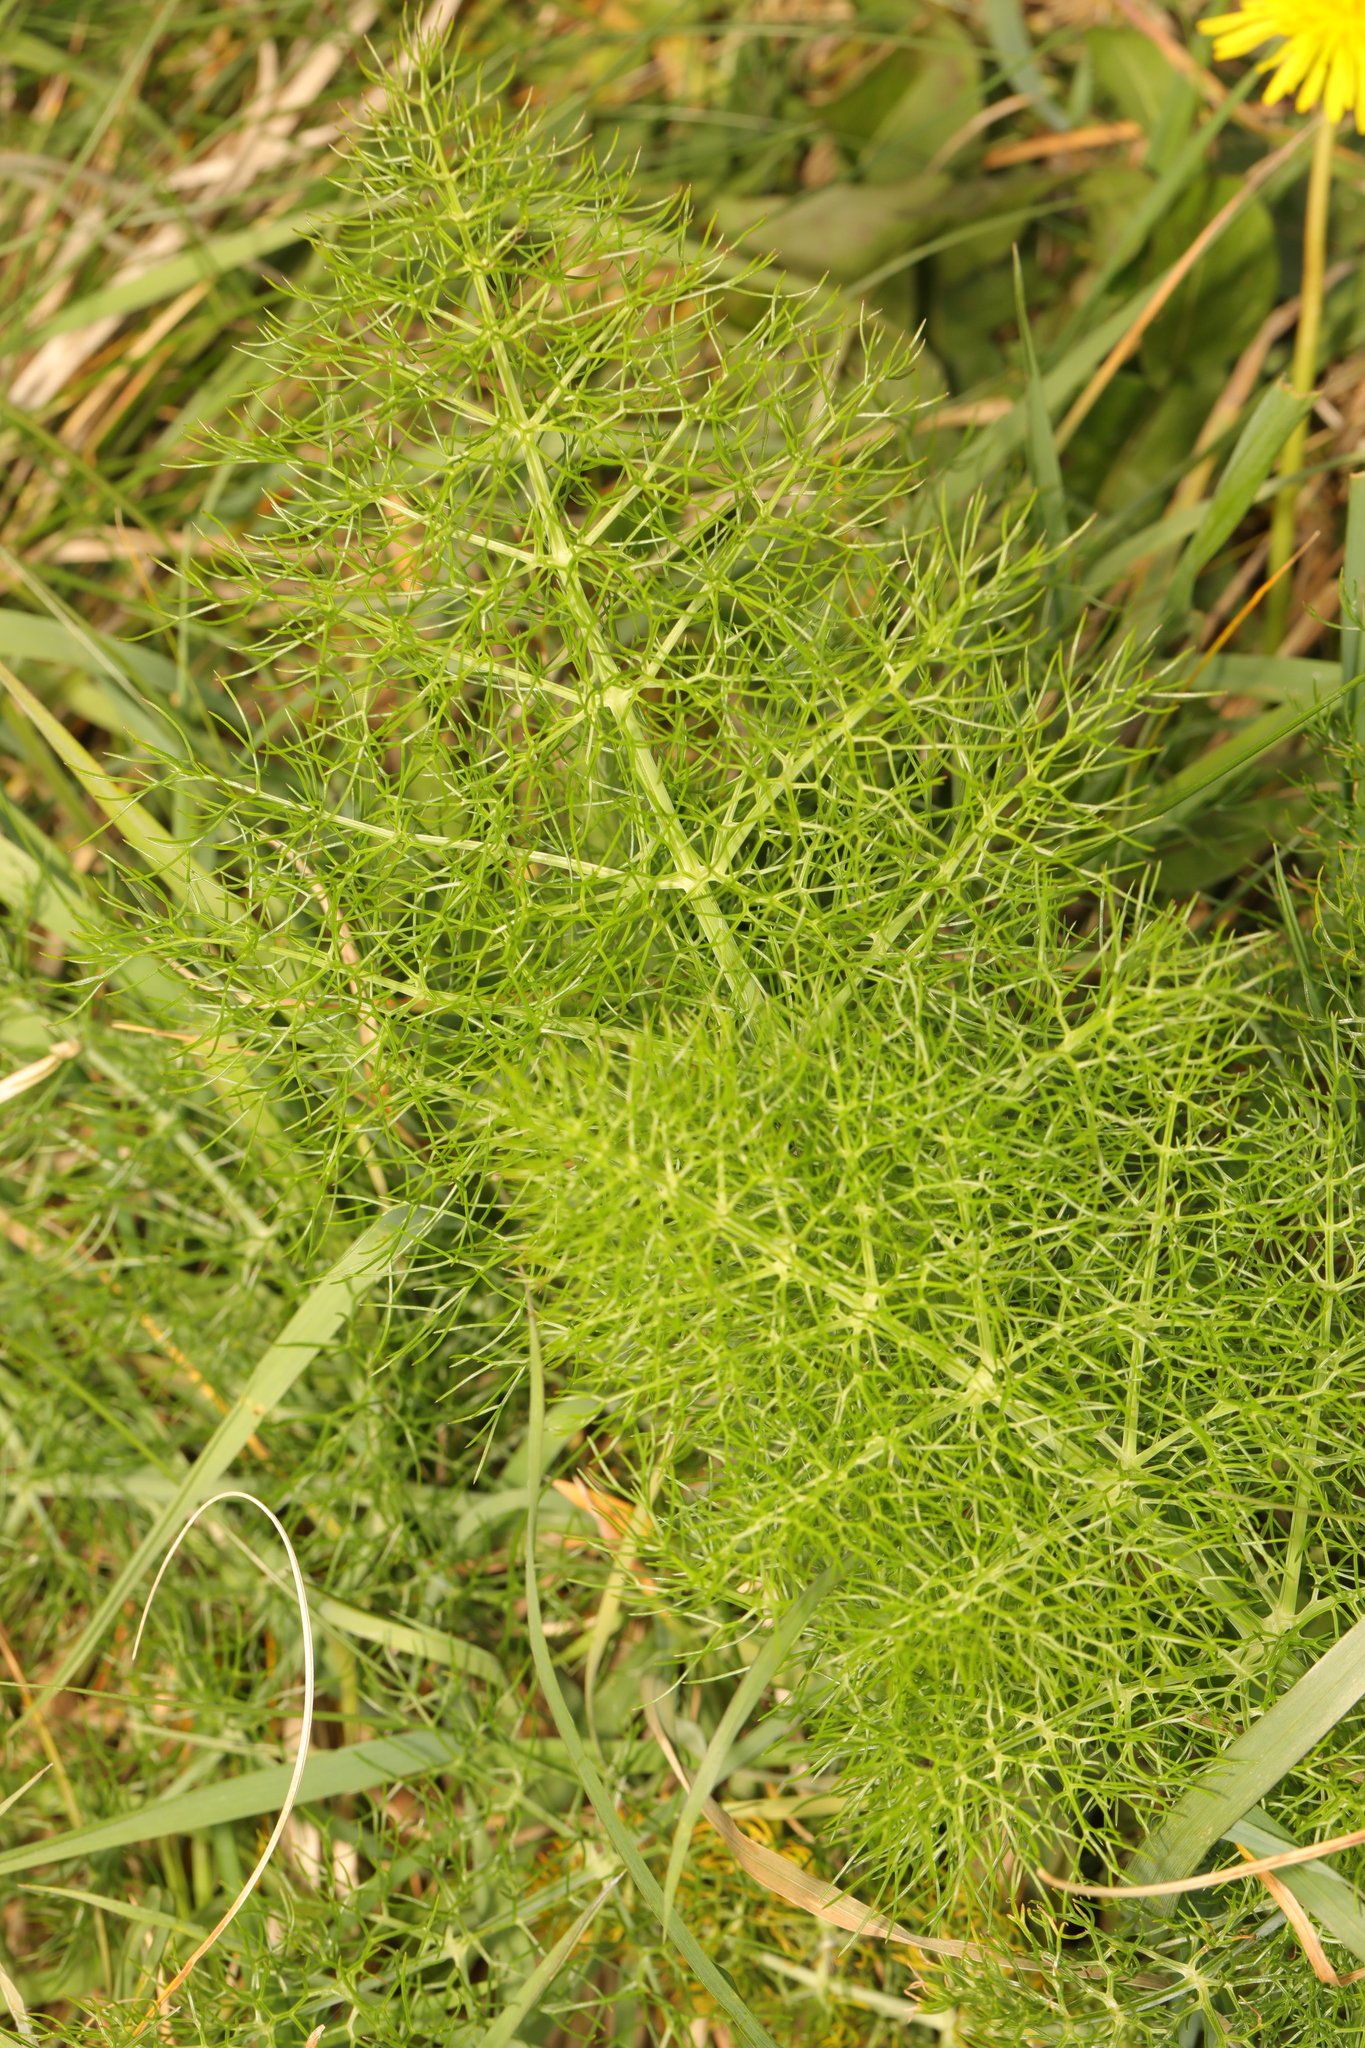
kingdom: Plantae
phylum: Tracheophyta
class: Magnoliopsida
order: Apiales
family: Apiaceae
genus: Foeniculum
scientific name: Foeniculum vulgare
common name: Fennel
